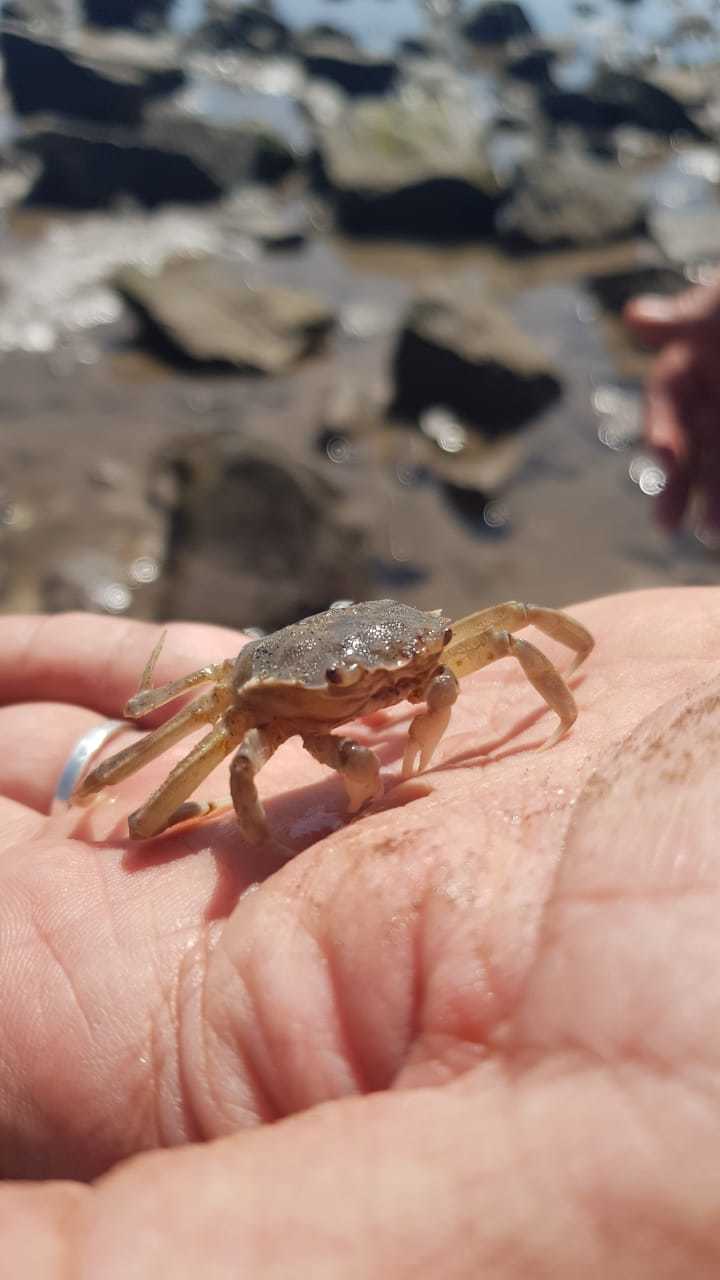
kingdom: Animalia
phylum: Arthropoda
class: Malacostraca
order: Decapoda
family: Varunidae
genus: Cyrtograpsus
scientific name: Cyrtograpsus angulatus
